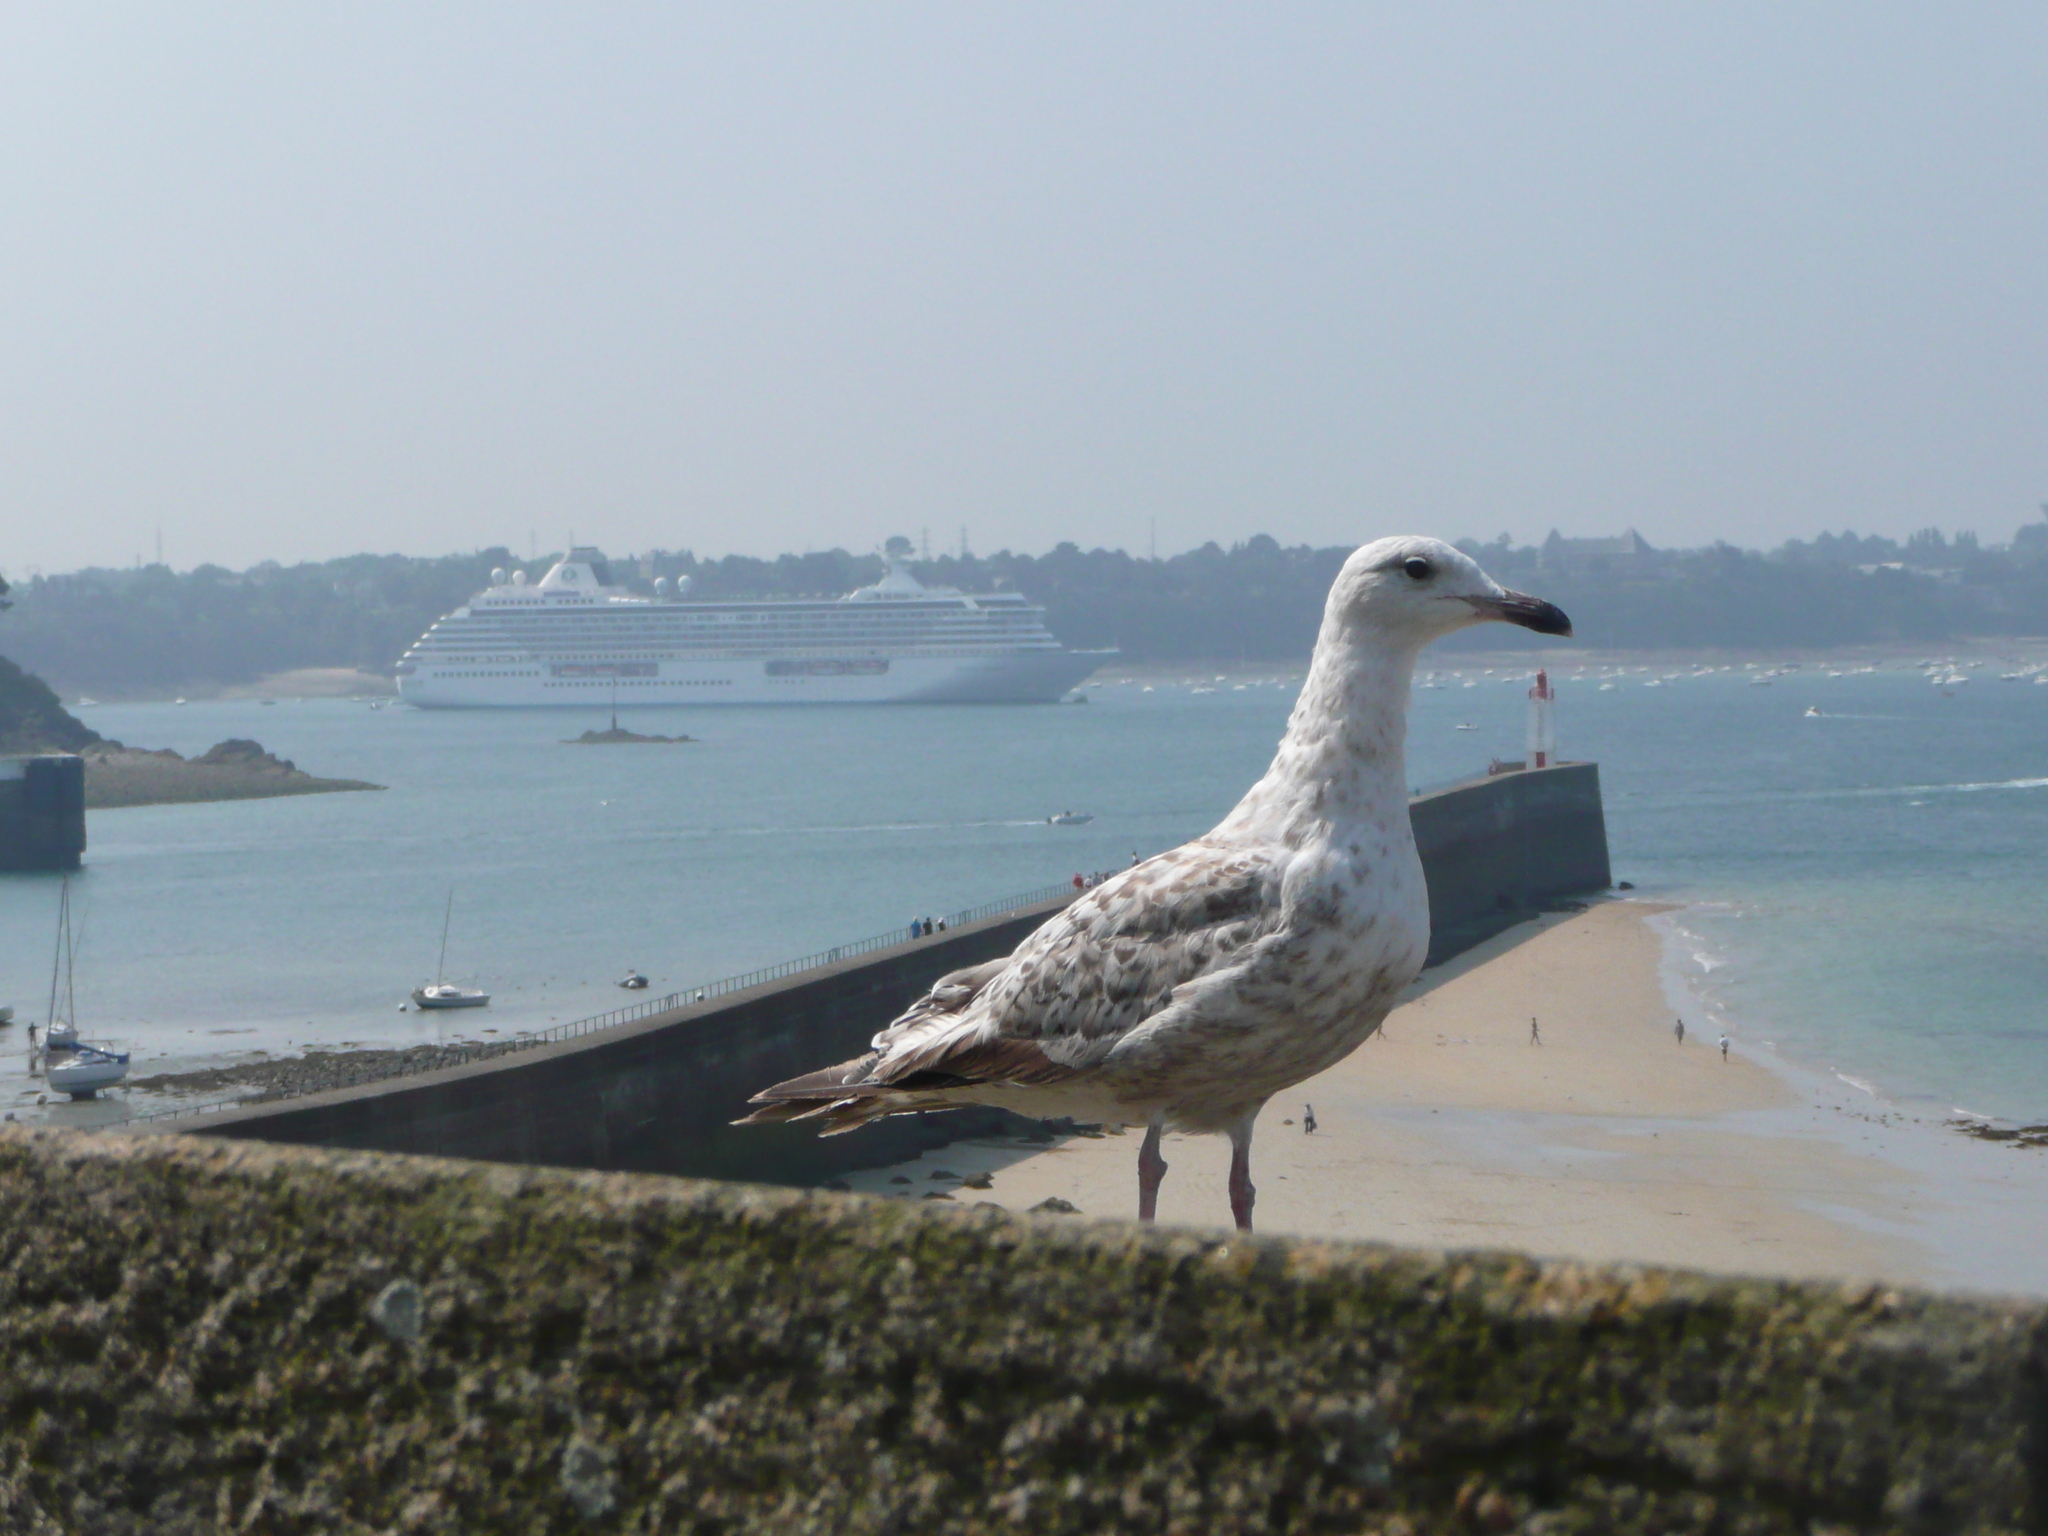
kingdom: Animalia
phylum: Chordata
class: Aves
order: Charadriiformes
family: Laridae
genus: Larus
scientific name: Larus argentatus
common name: Herring gull
